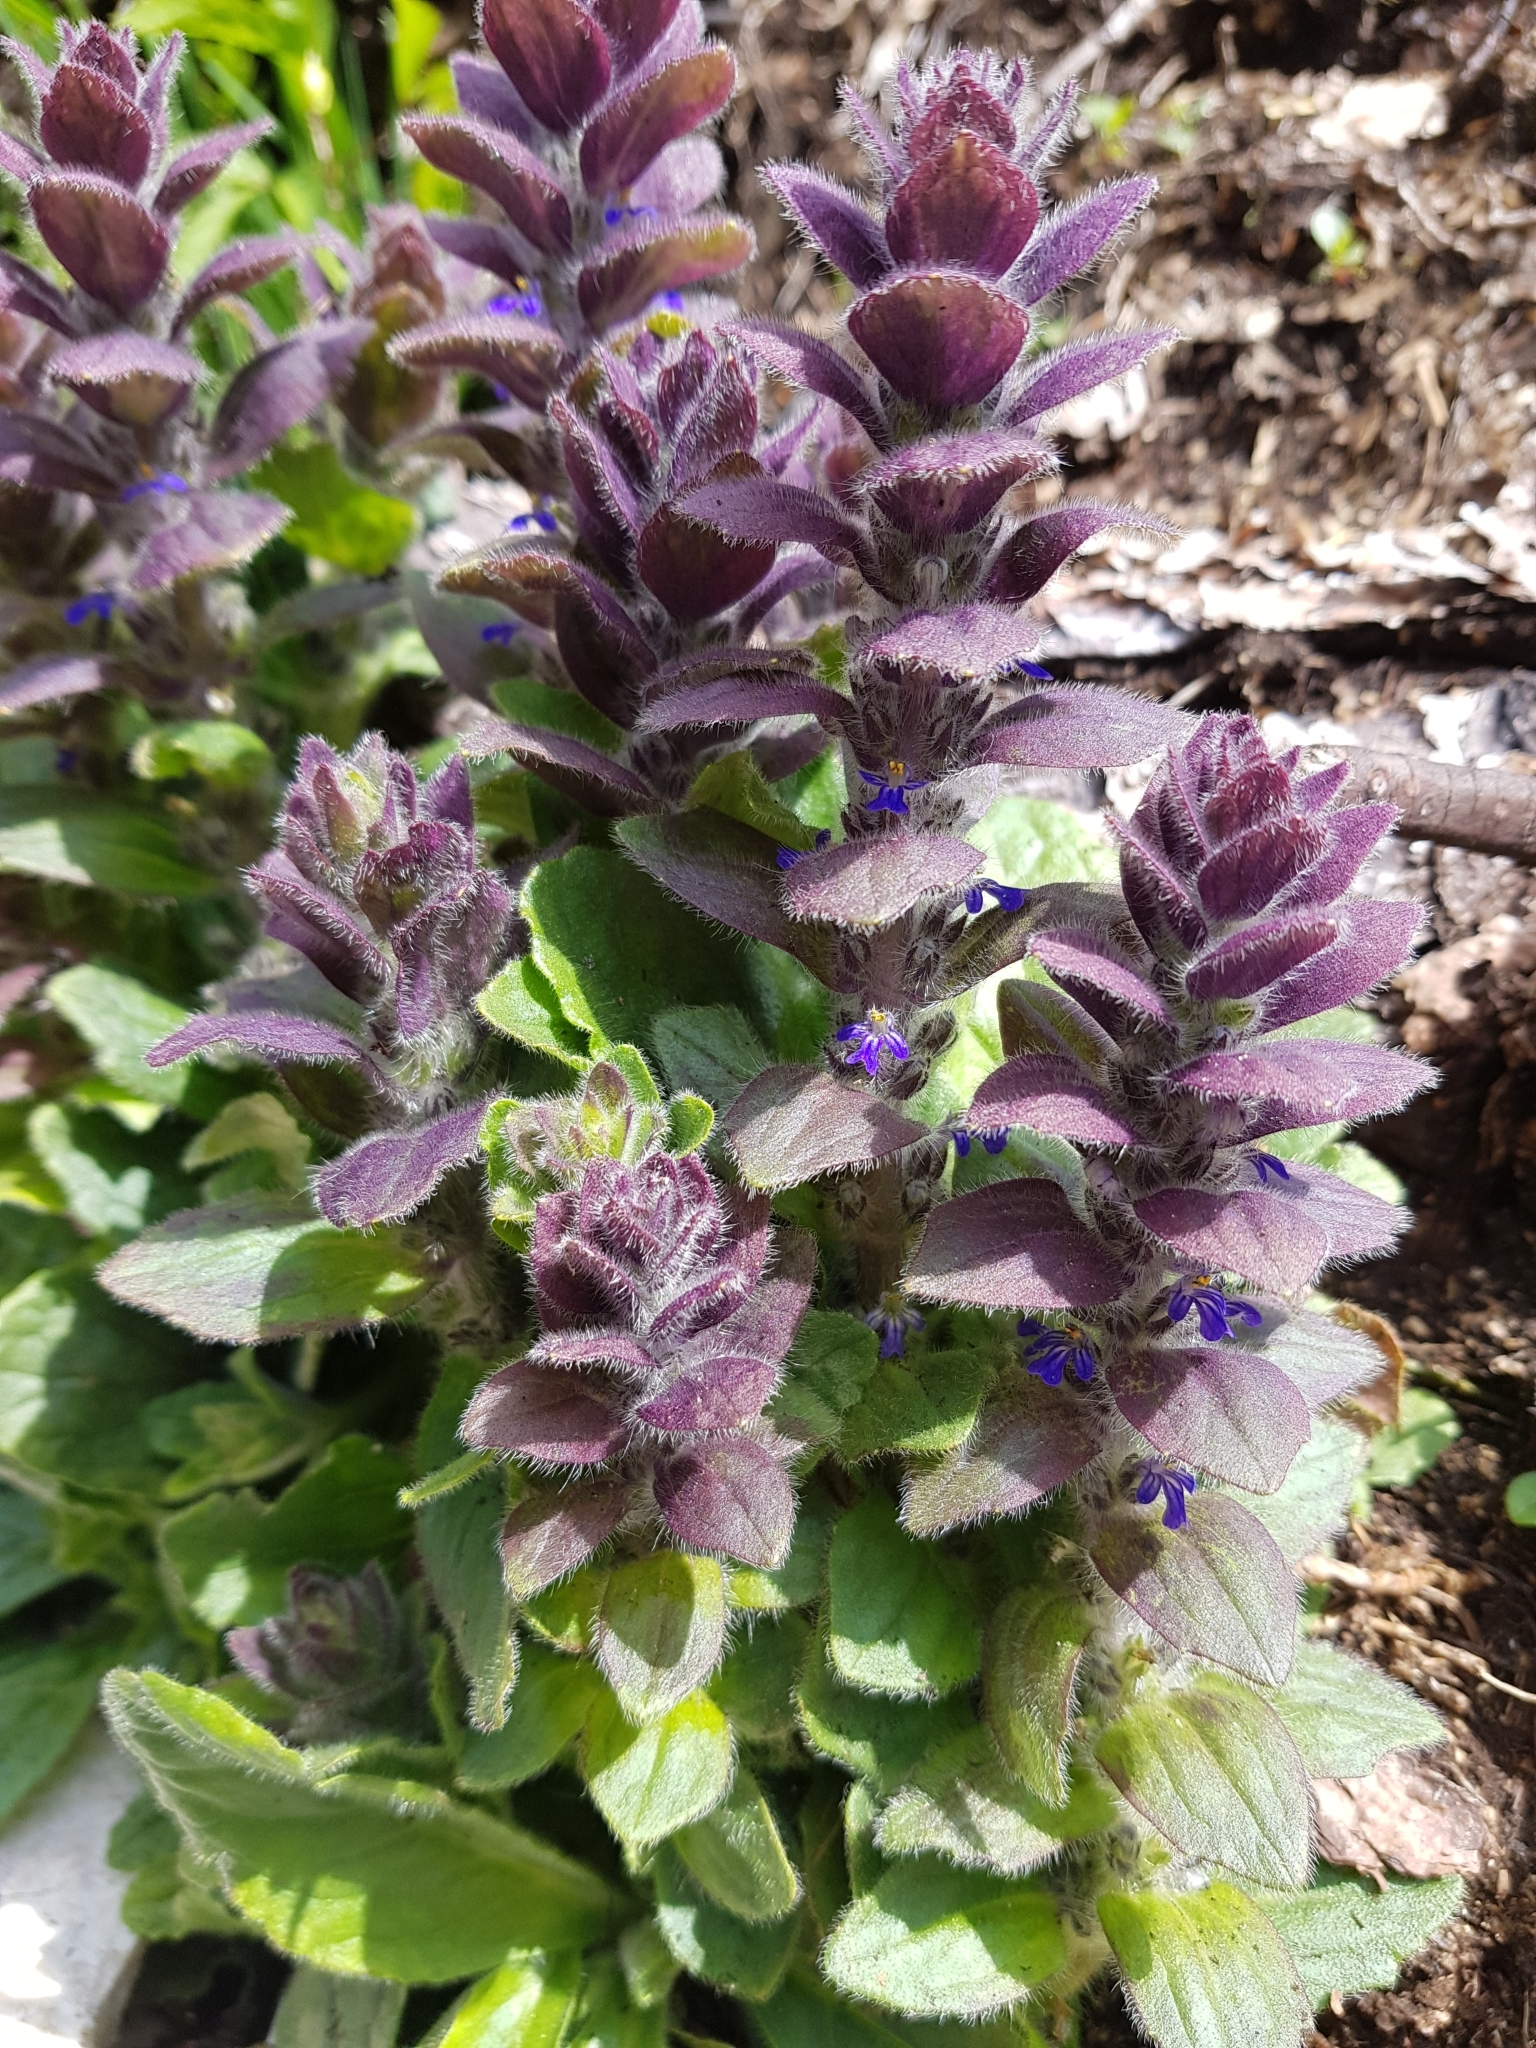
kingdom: Plantae
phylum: Tracheophyta
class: Magnoliopsida
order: Lamiales
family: Lamiaceae
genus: Ajuga
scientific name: Ajuga pyramidalis
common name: Pyramid bugle
